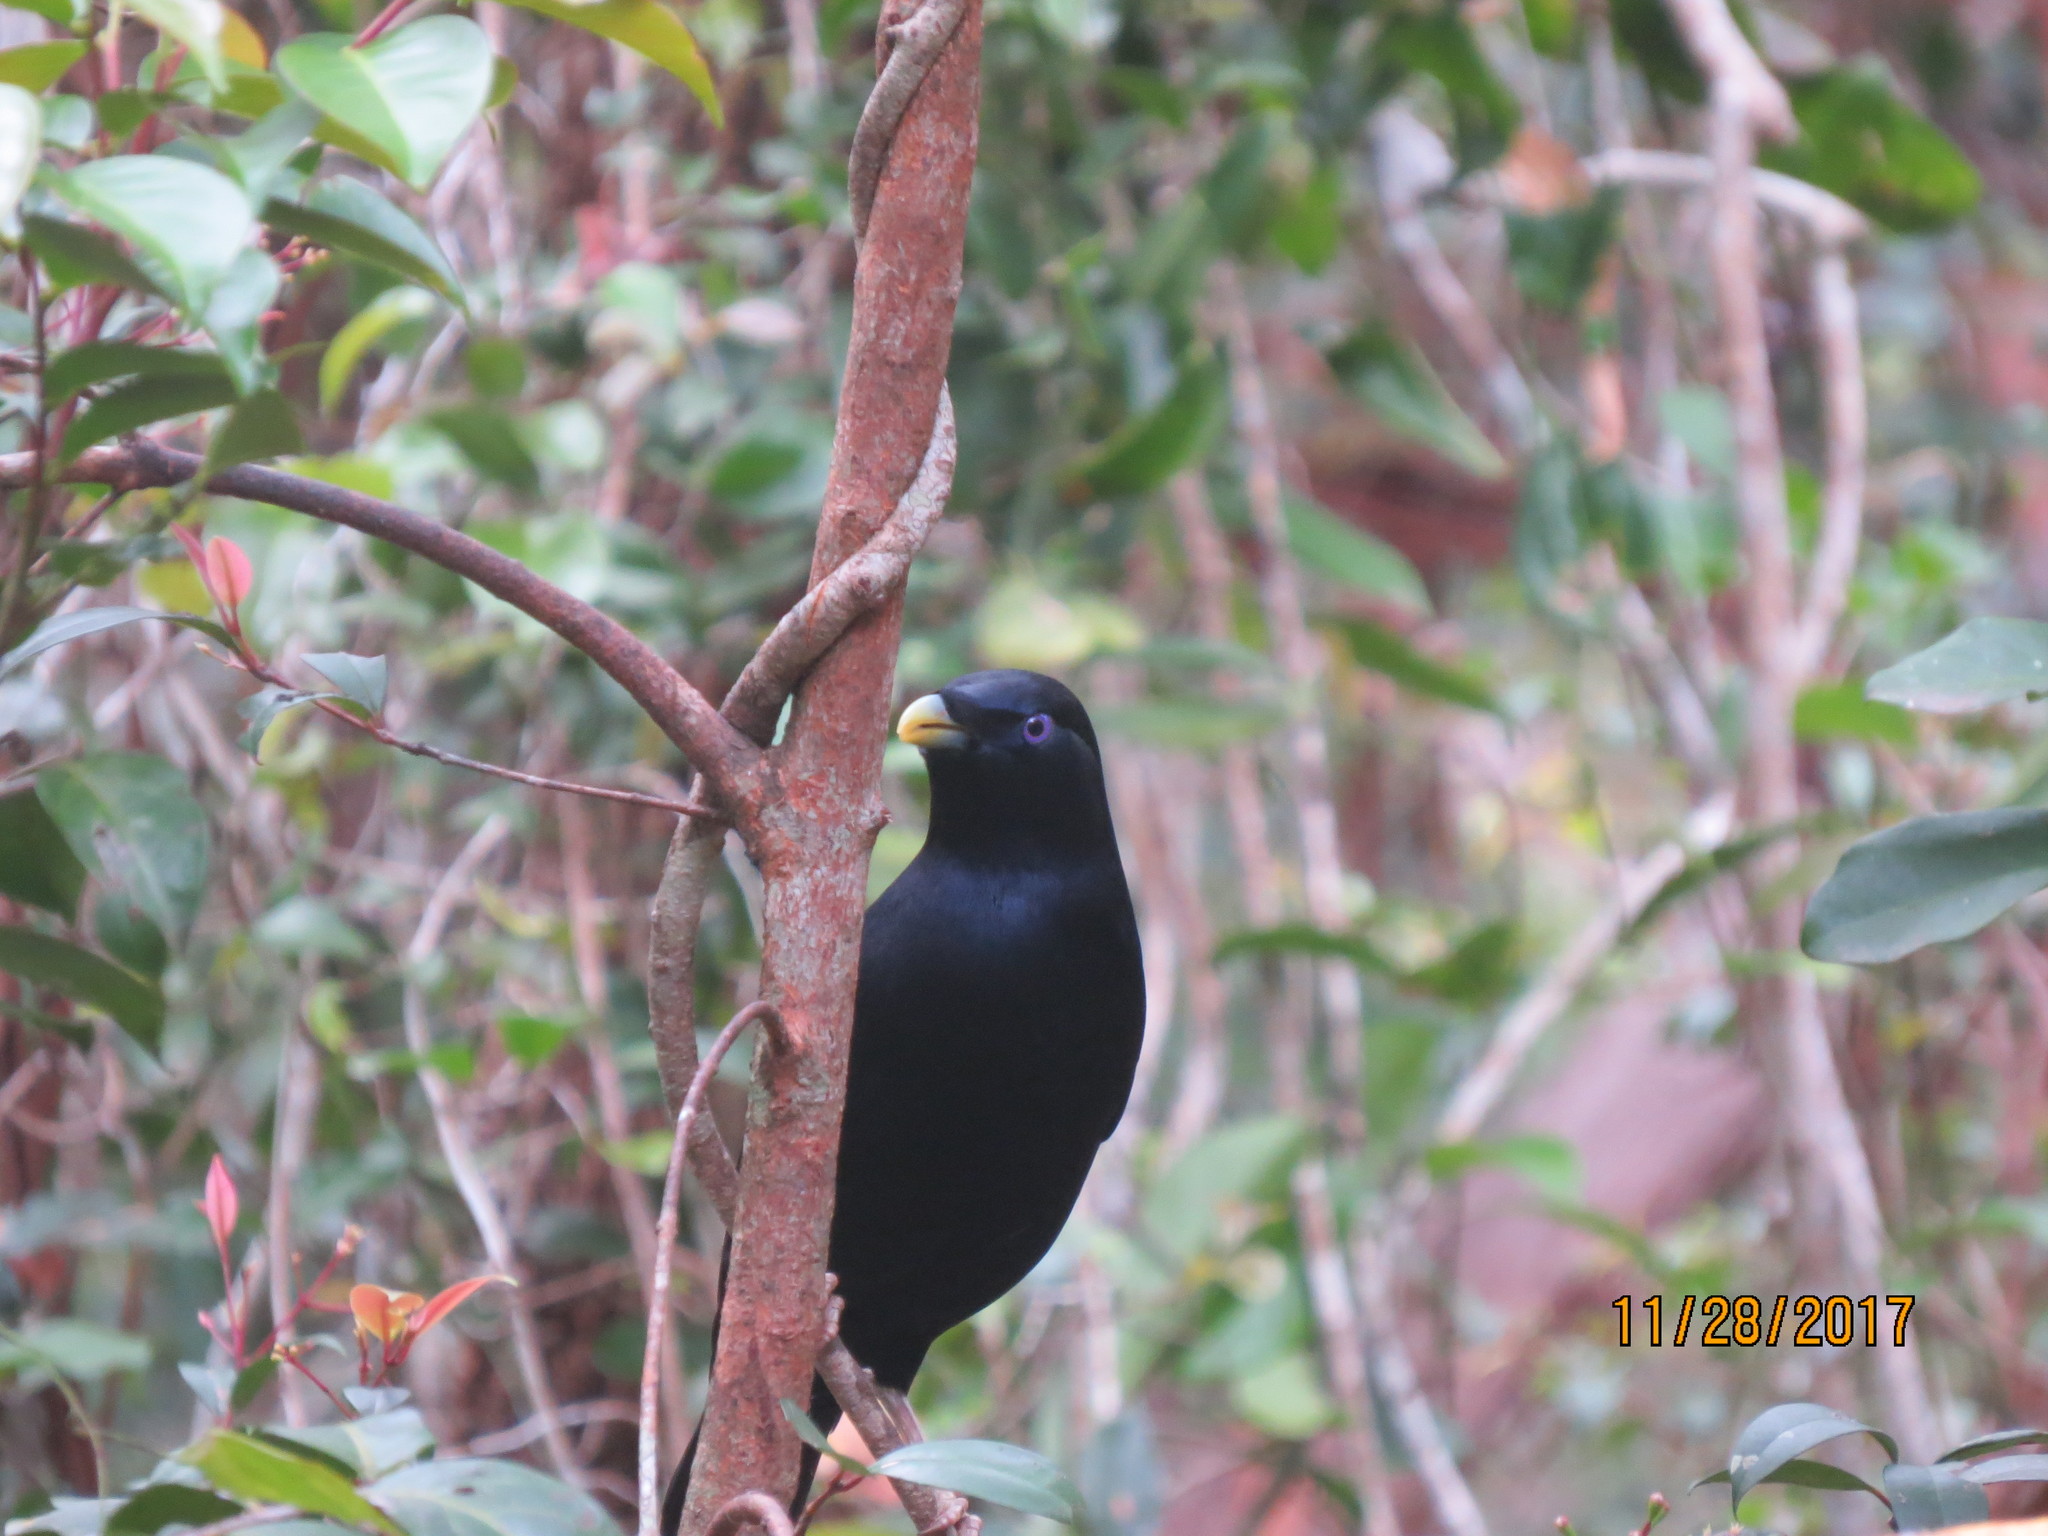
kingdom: Animalia
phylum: Chordata
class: Aves
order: Passeriformes
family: Ptilonorhynchidae
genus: Ptilonorhynchus
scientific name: Ptilonorhynchus violaceus
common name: Satin bowerbird
